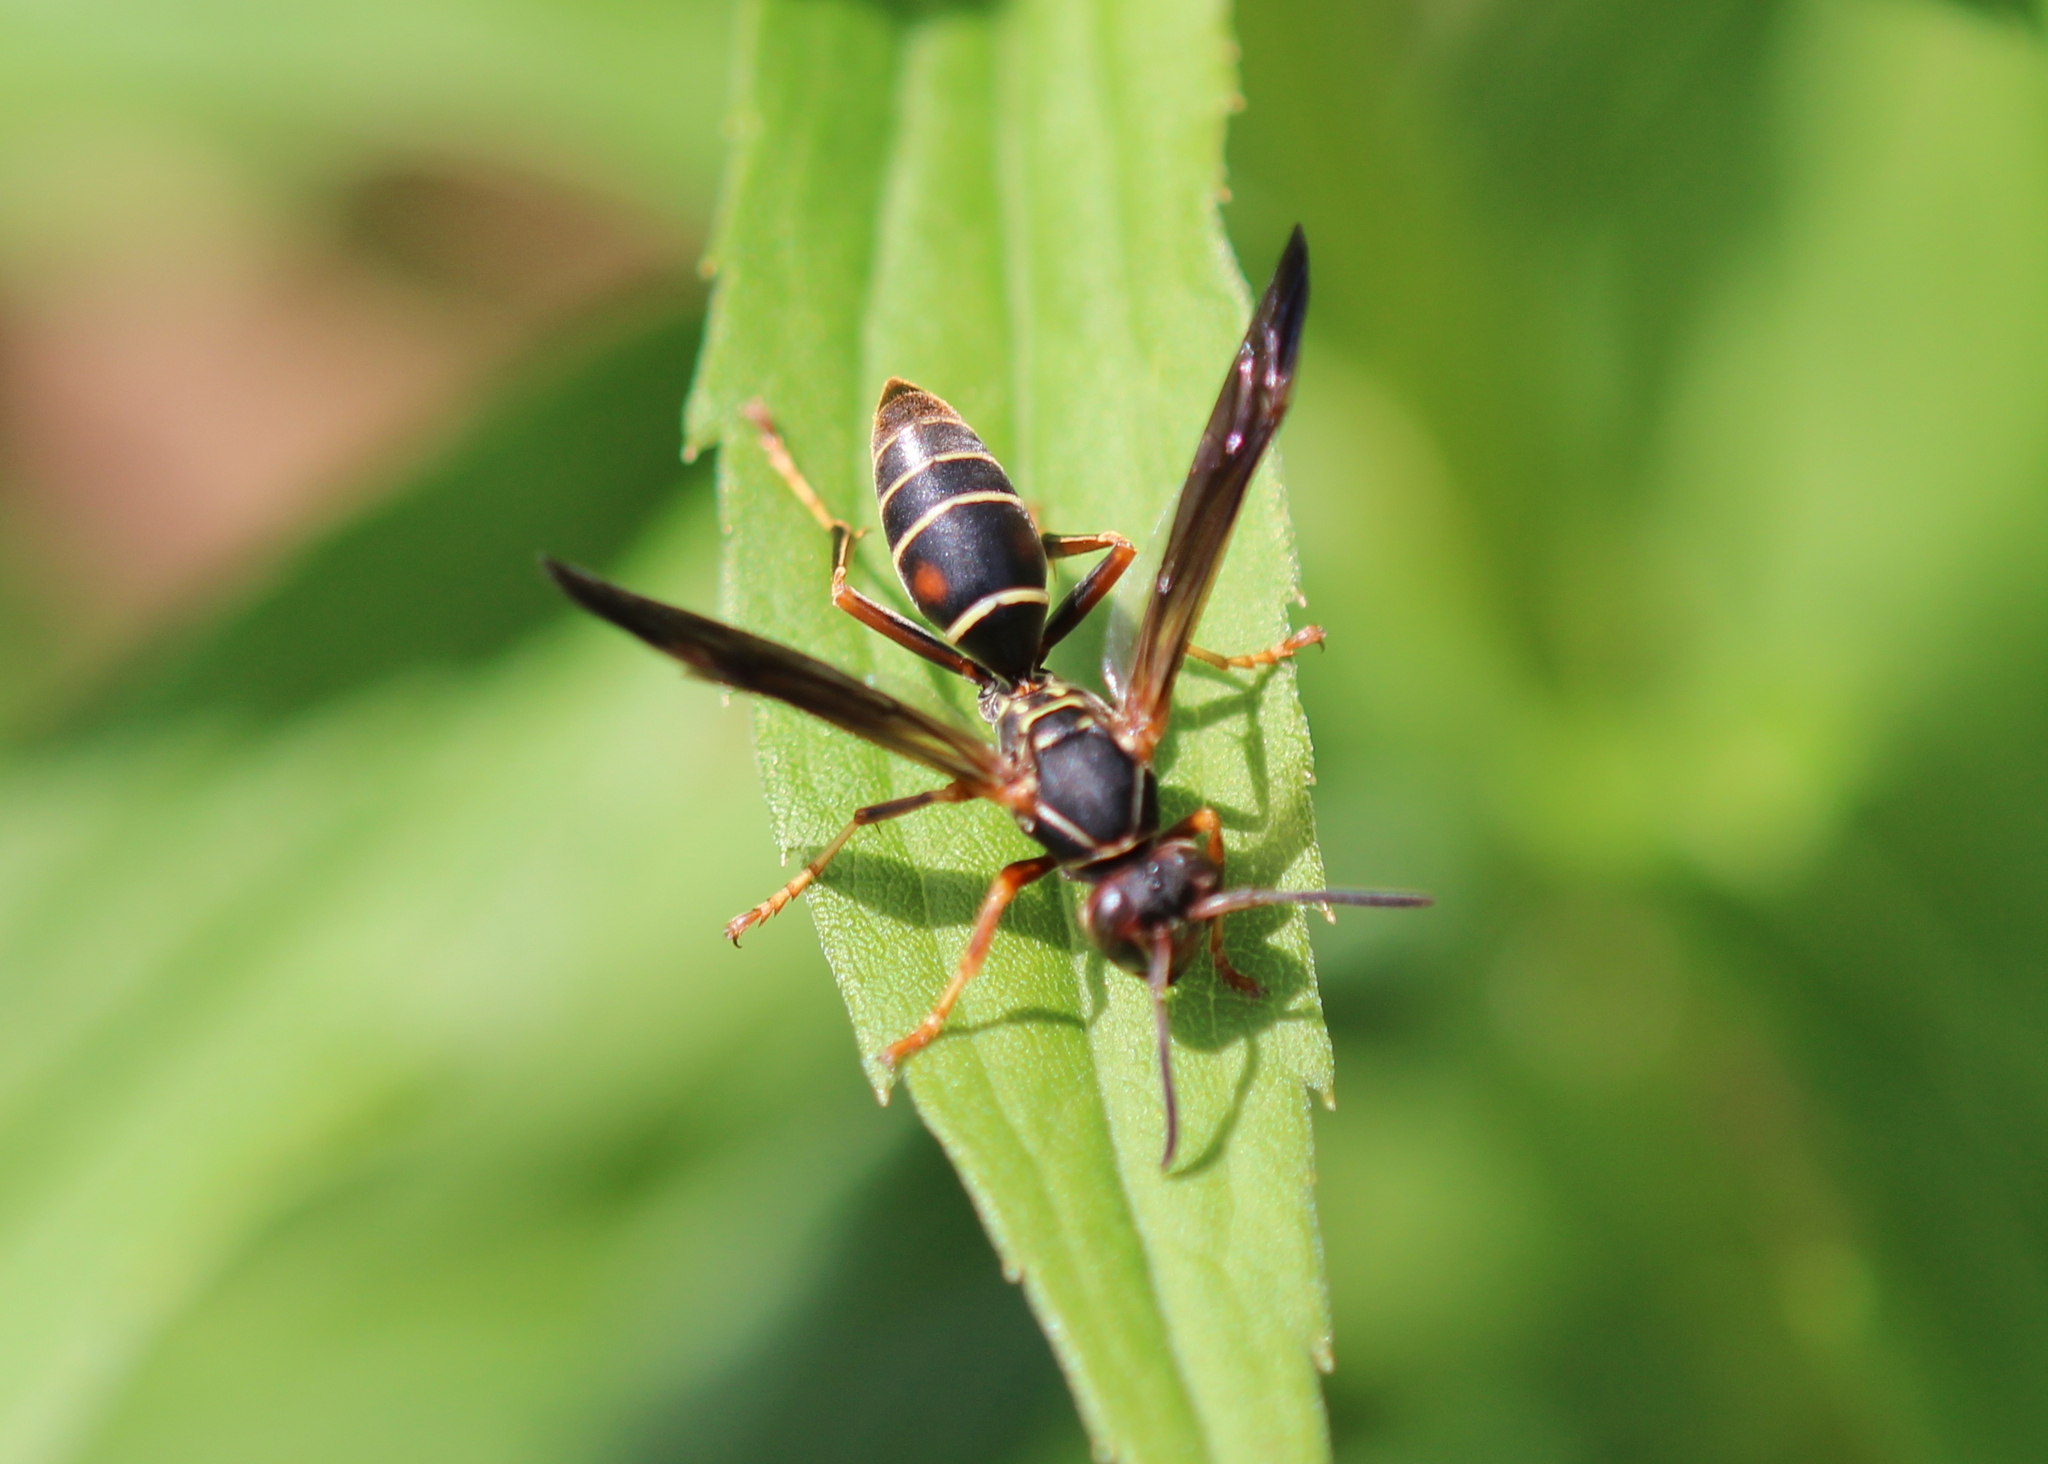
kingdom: Animalia
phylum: Arthropoda
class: Insecta
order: Hymenoptera
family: Eumenidae
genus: Polistes
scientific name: Polistes fuscatus
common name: Dark paper wasp
